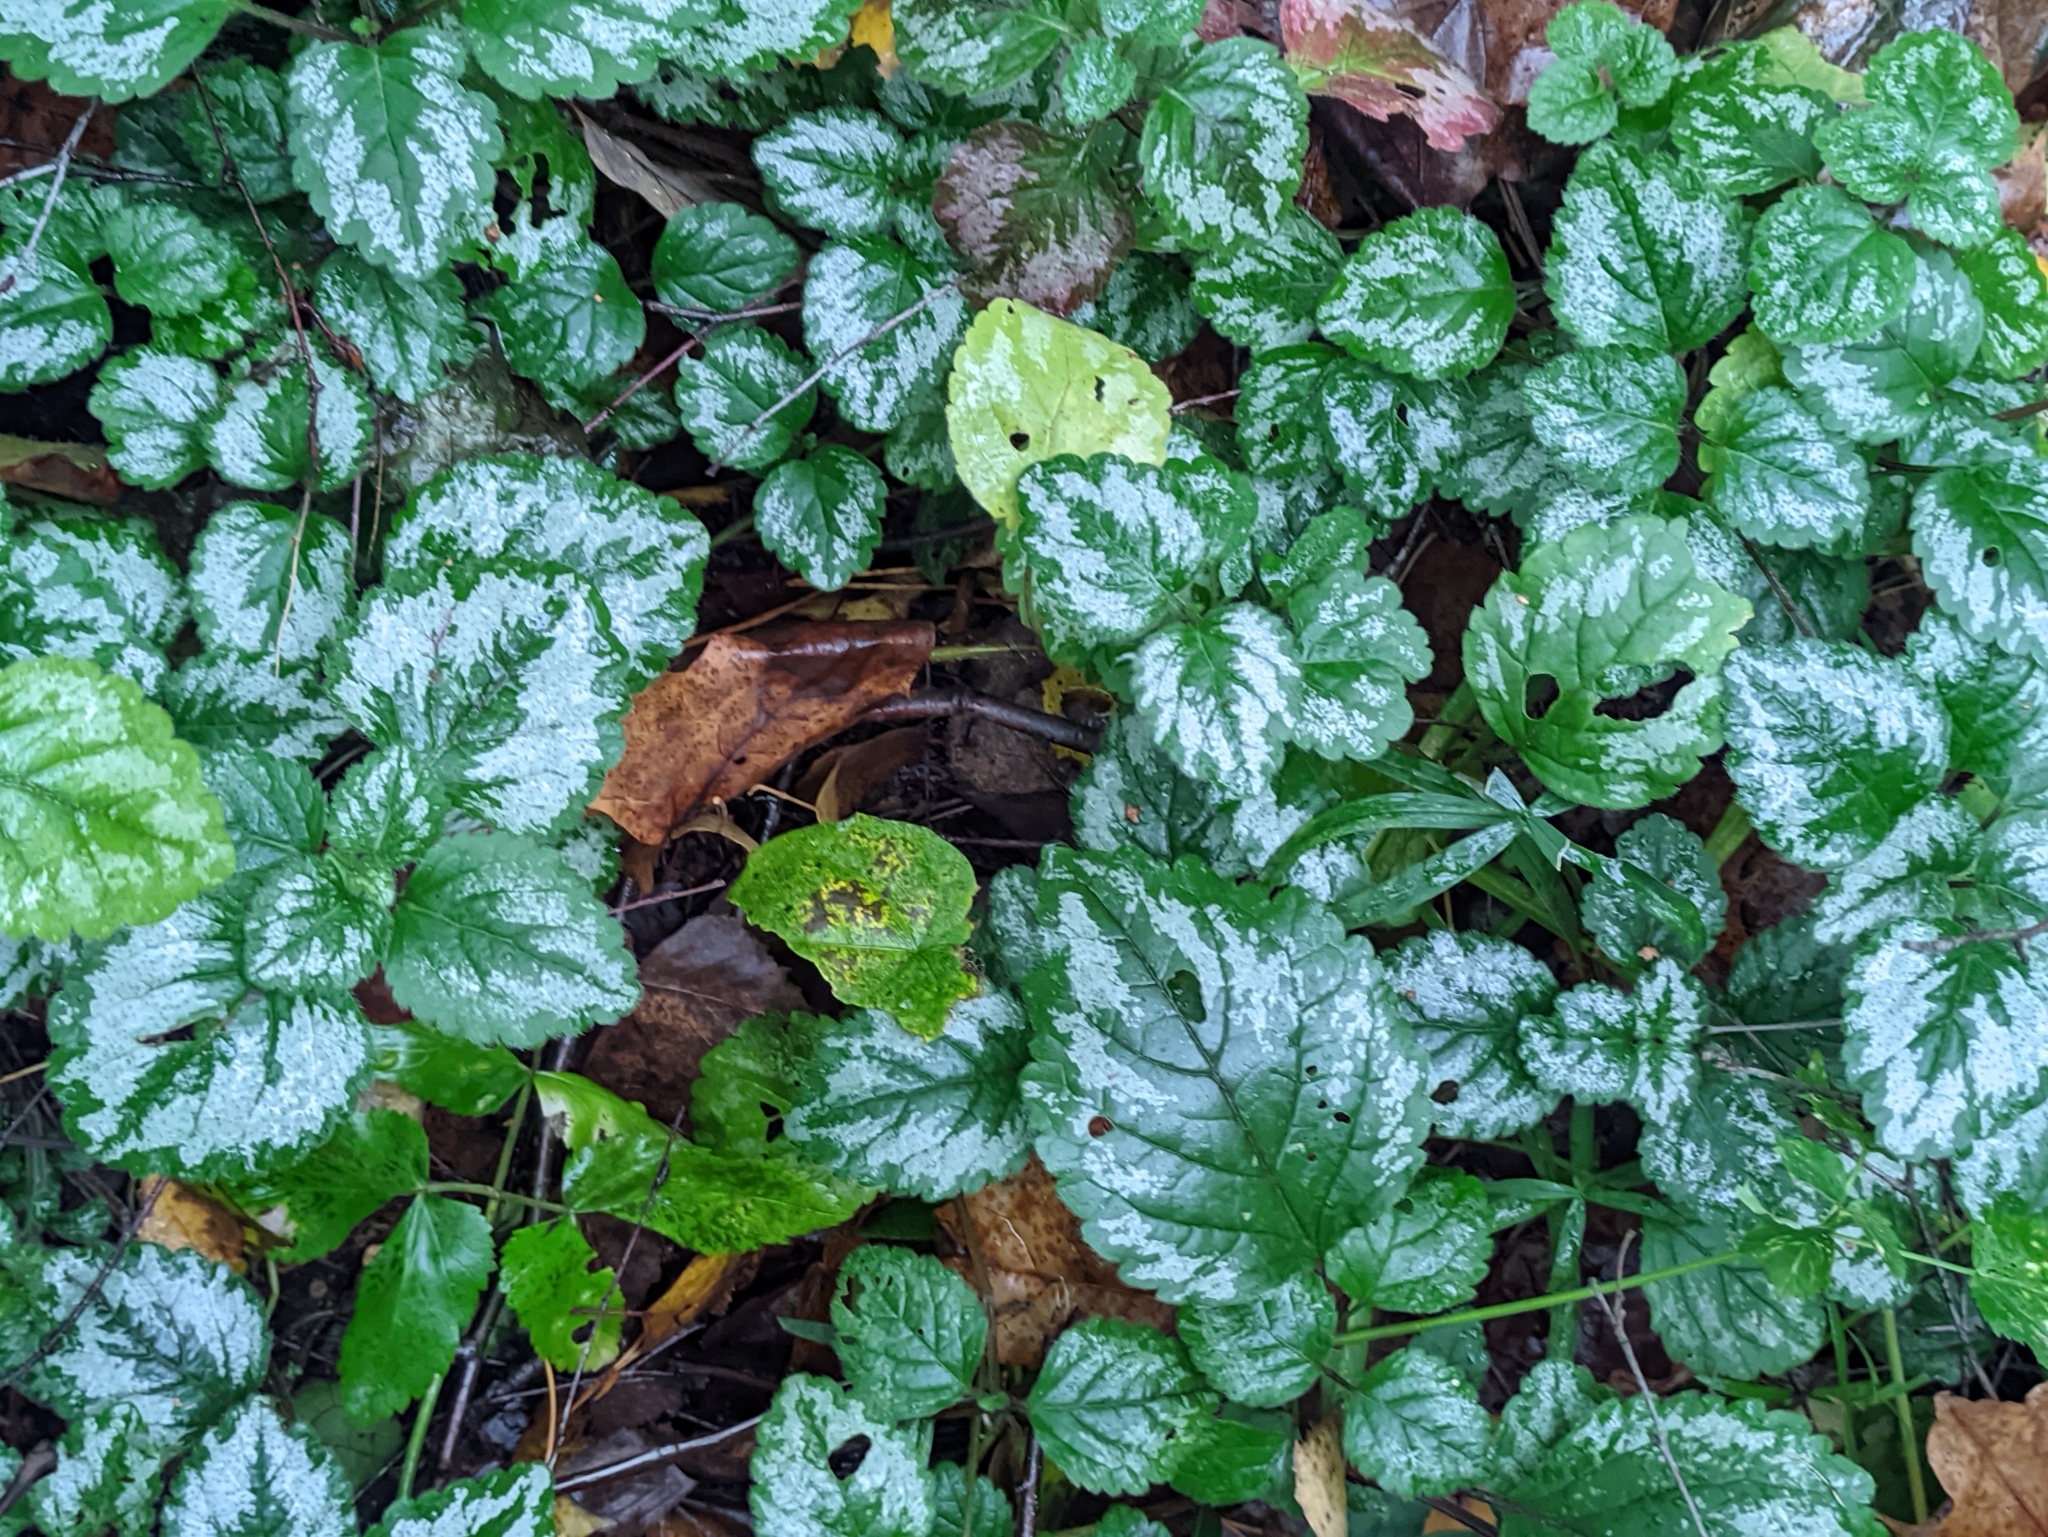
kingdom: Plantae
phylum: Tracheophyta
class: Magnoliopsida
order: Lamiales
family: Lamiaceae
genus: Lamium
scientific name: Lamium galeobdolon
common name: Yellow archangel
